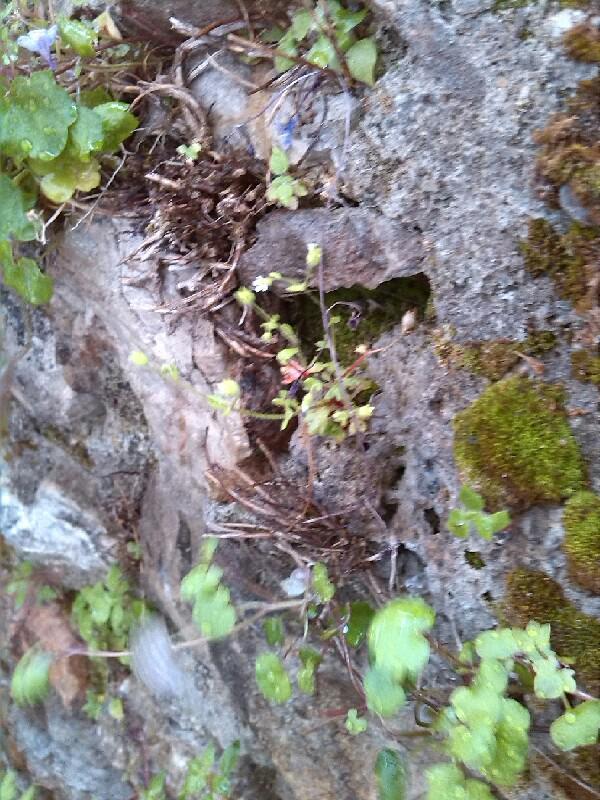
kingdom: Plantae
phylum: Tracheophyta
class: Magnoliopsida
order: Saxifragales
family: Saxifragaceae
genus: Saxifraga
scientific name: Saxifraga tridactylites
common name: Rue-leaved saxifrage
